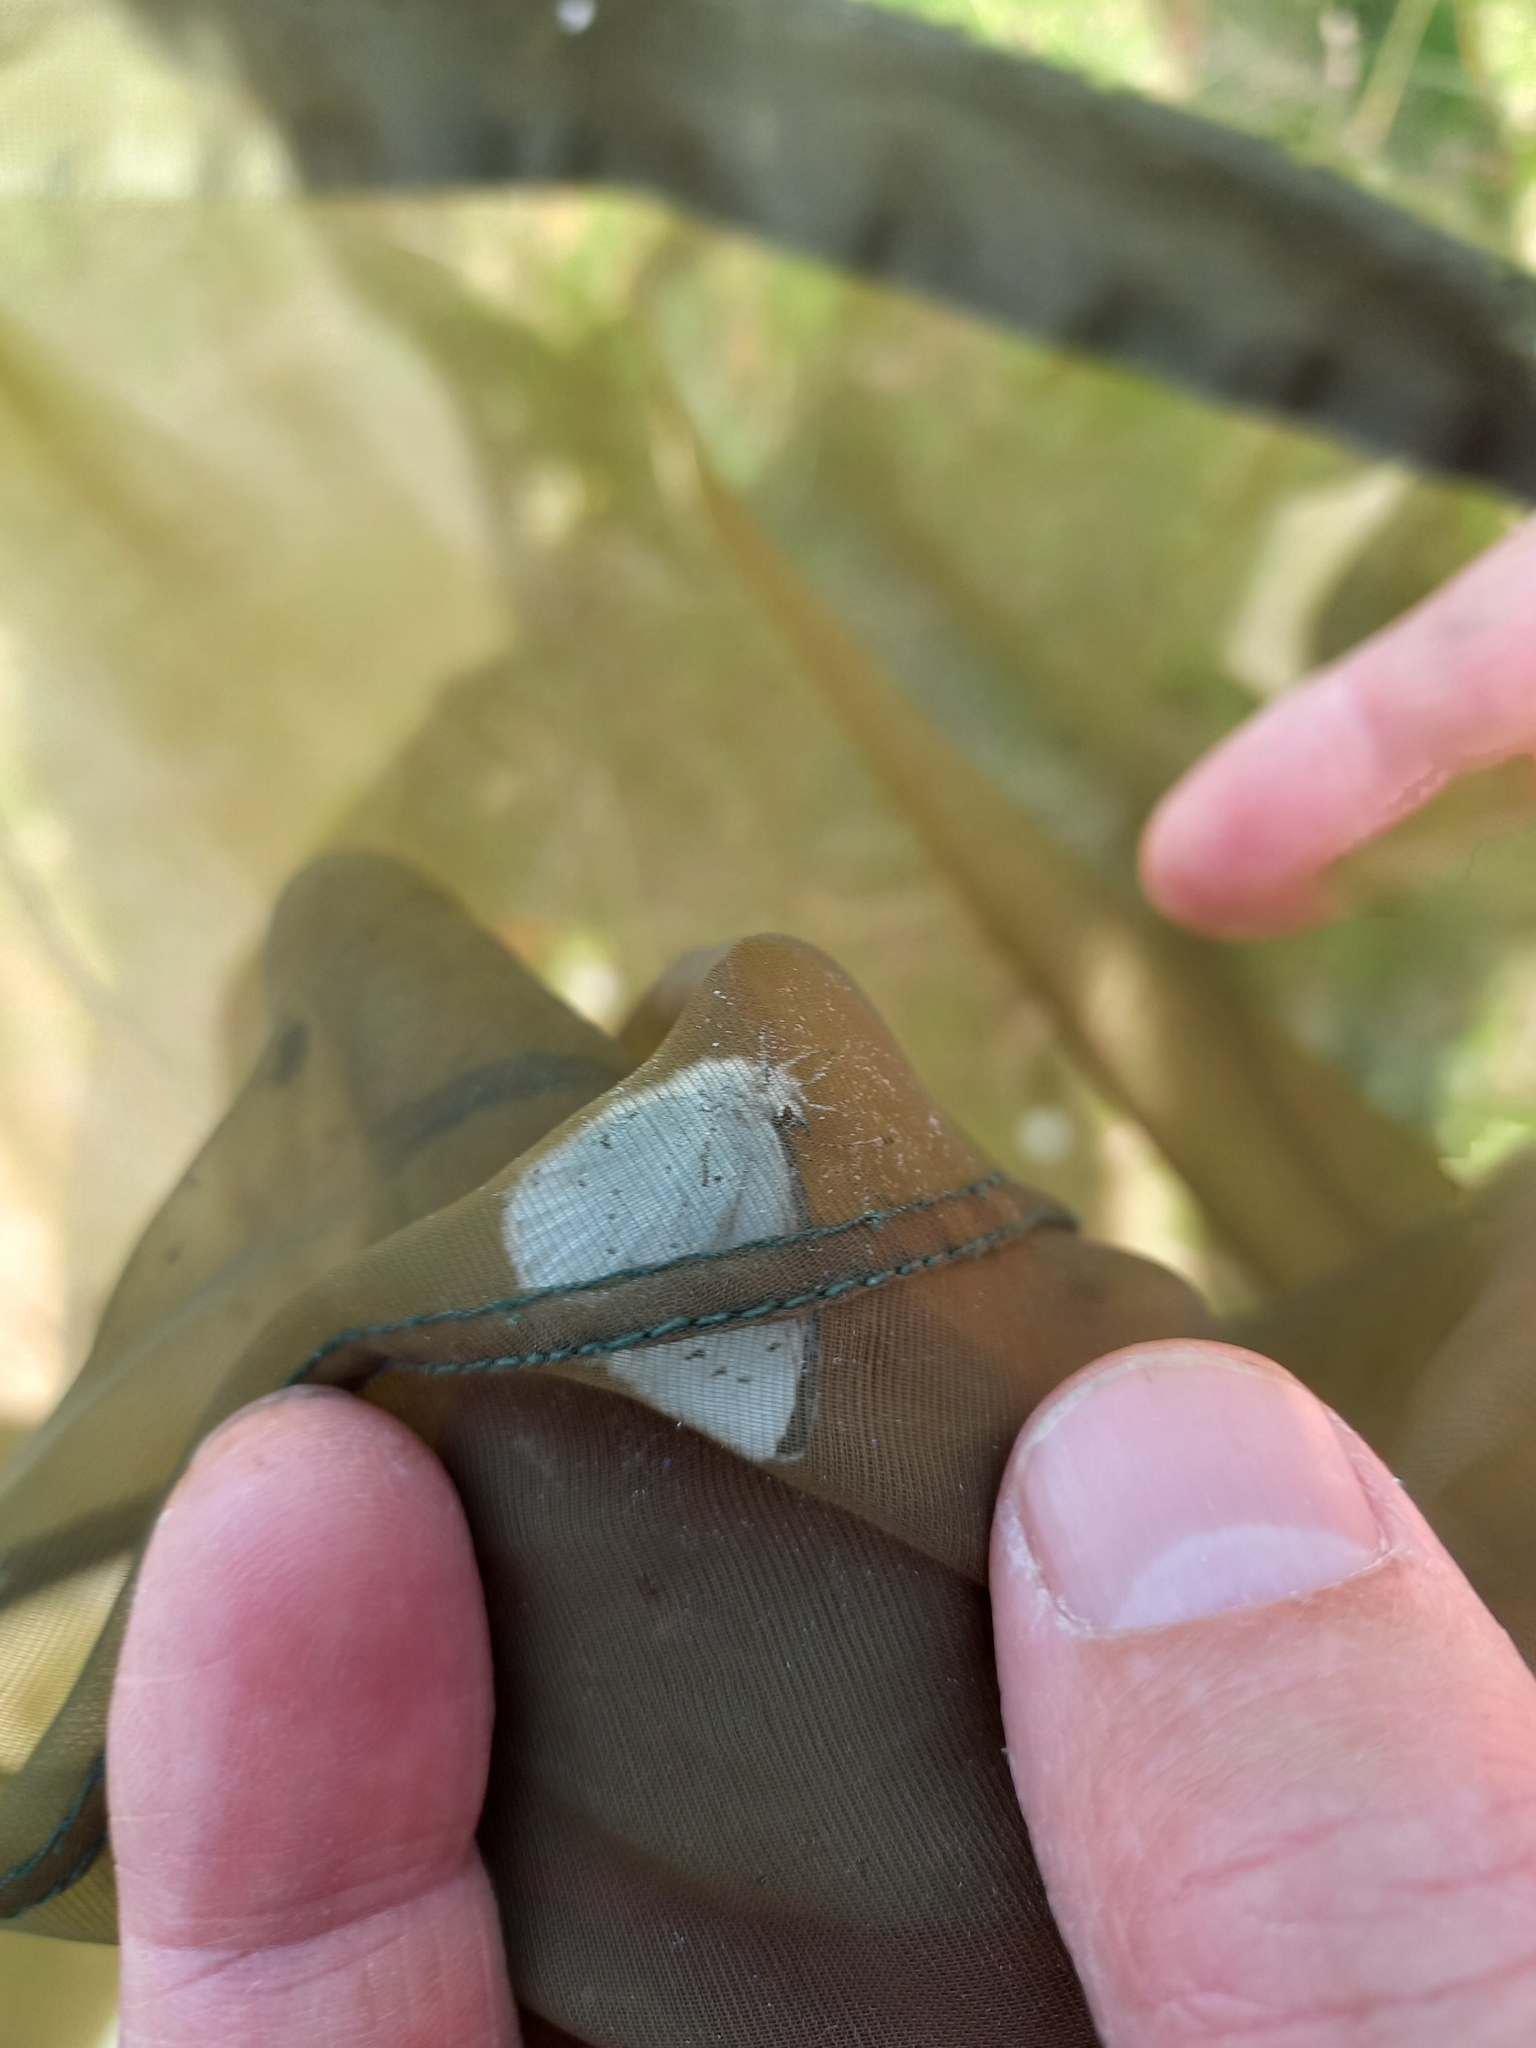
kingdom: Animalia
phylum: Arthropoda
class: Insecta
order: Lepidoptera
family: Lycaenidae
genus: Celastrina
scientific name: Celastrina argiolus
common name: Holly blue
